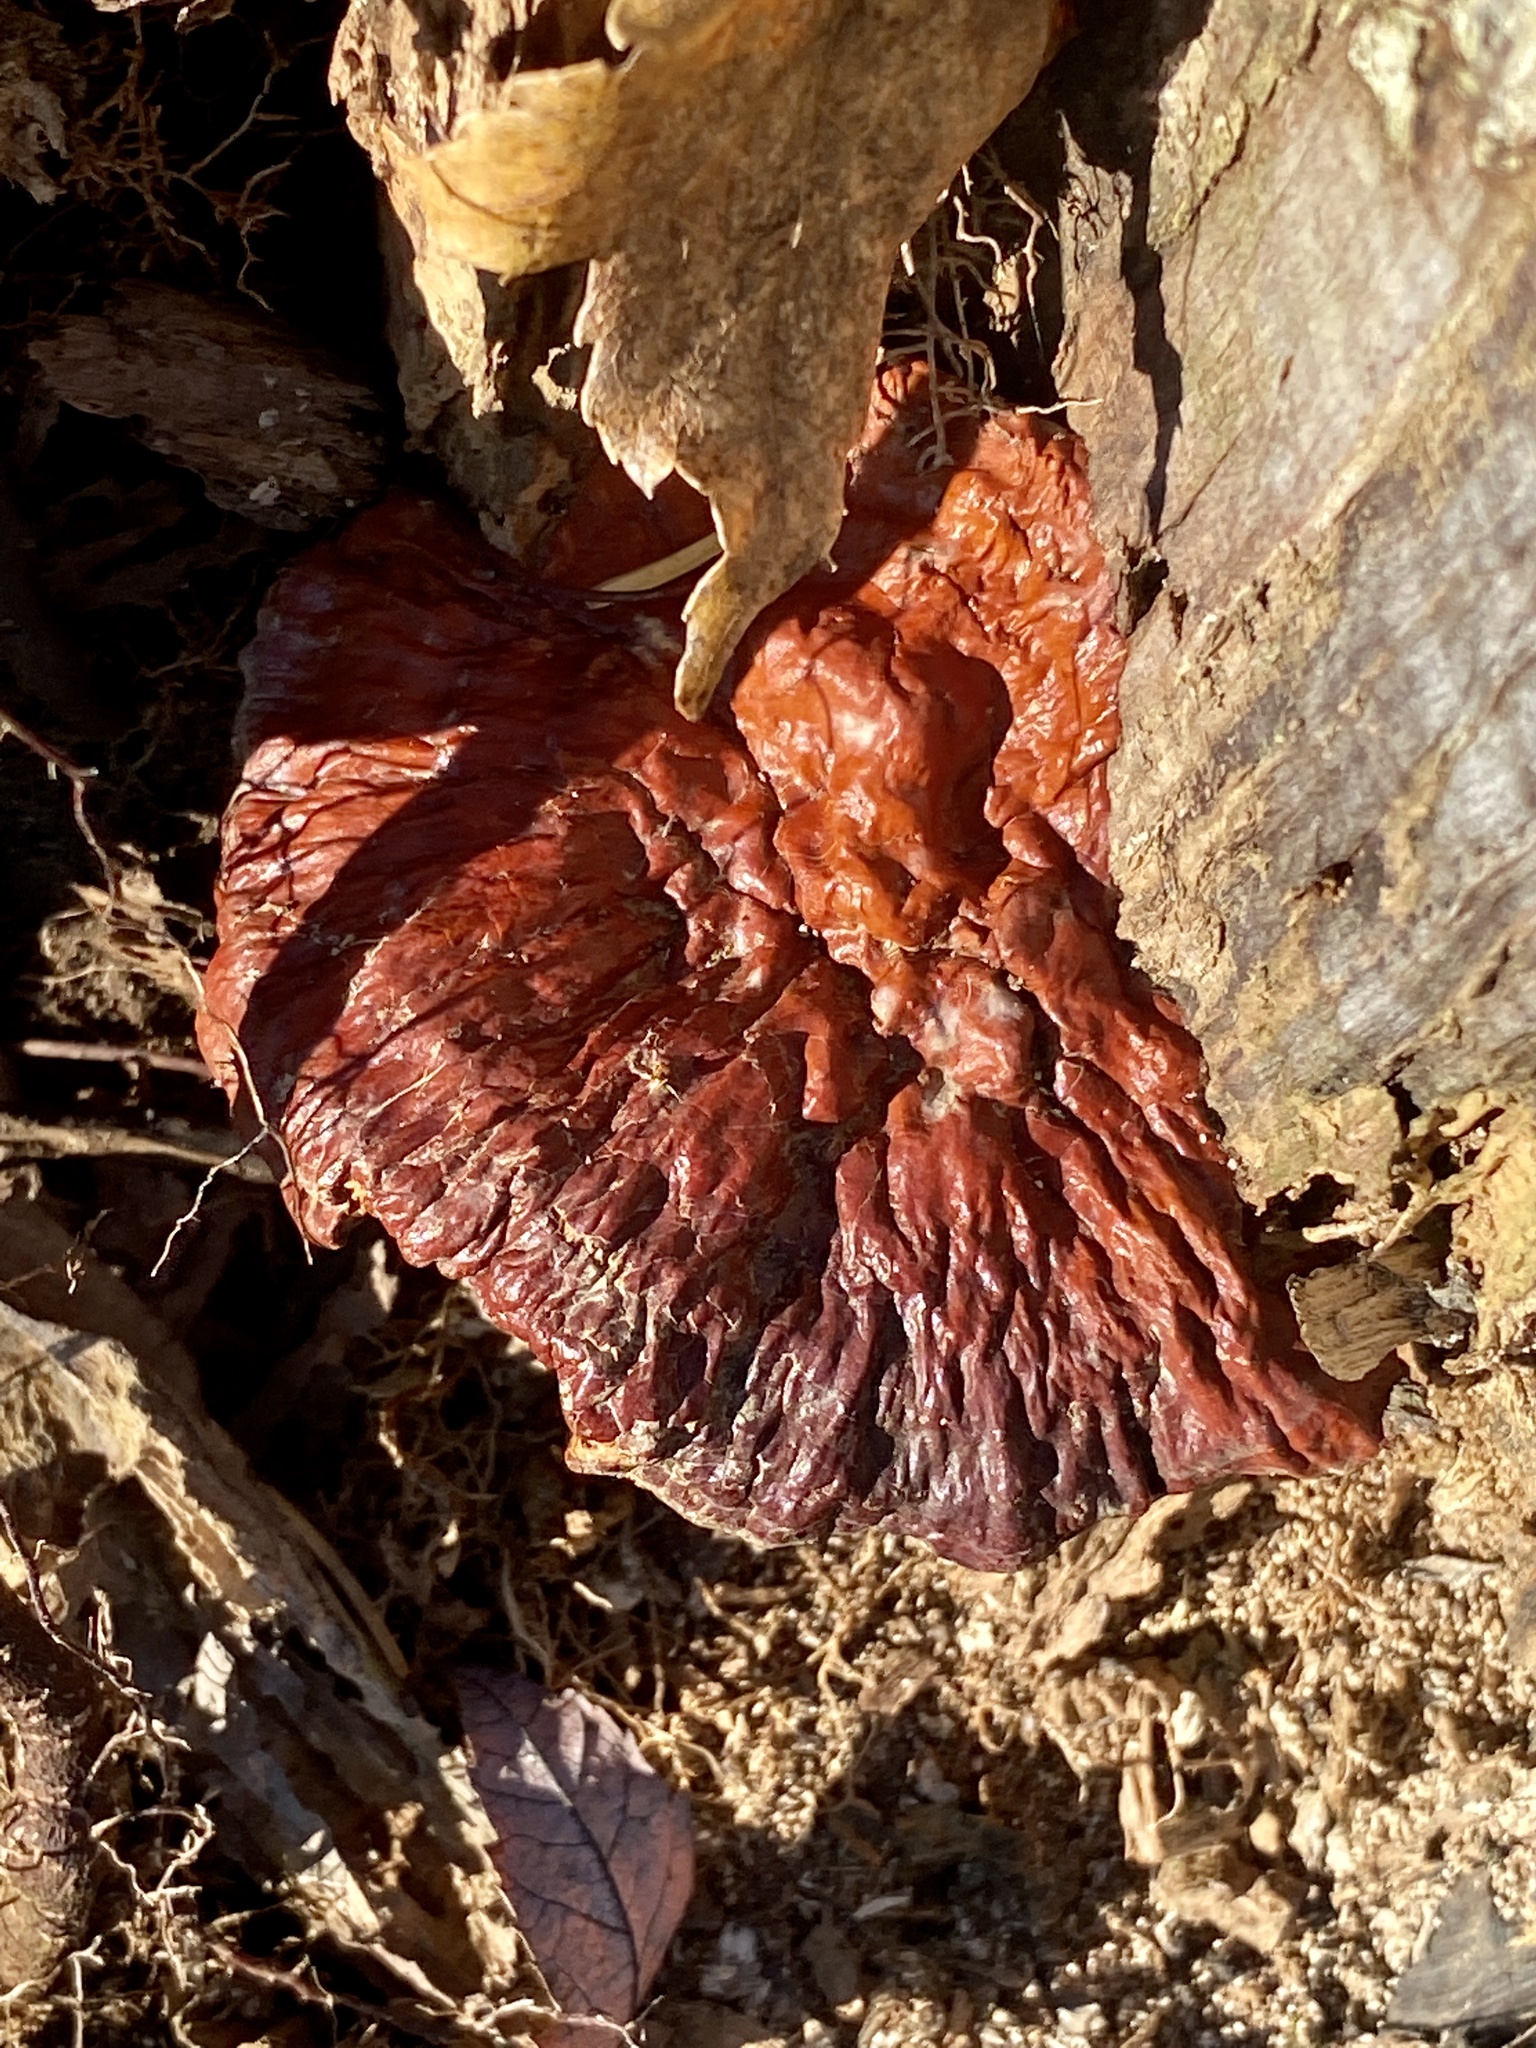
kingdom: Fungi
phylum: Basidiomycota
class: Agaricomycetes
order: Polyporales
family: Polyporaceae
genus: Ganoderma
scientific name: Ganoderma resinaceum
